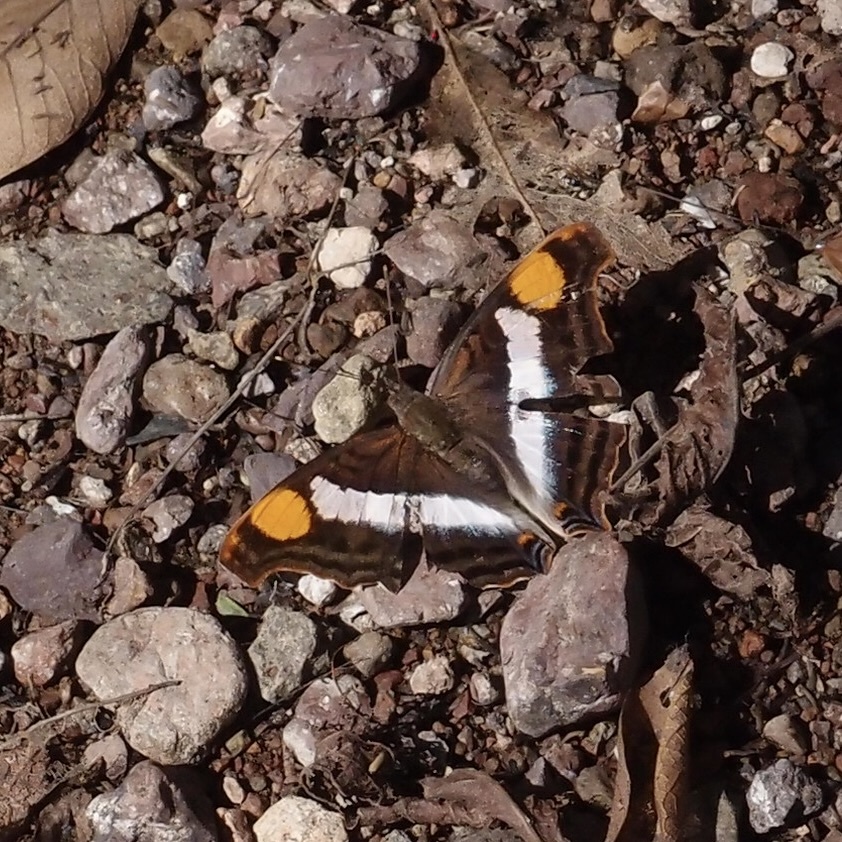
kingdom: Animalia
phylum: Arthropoda
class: Insecta
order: Lepidoptera
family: Nymphalidae
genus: Doxocopa
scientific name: Doxocopa laure
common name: Silver emperor
